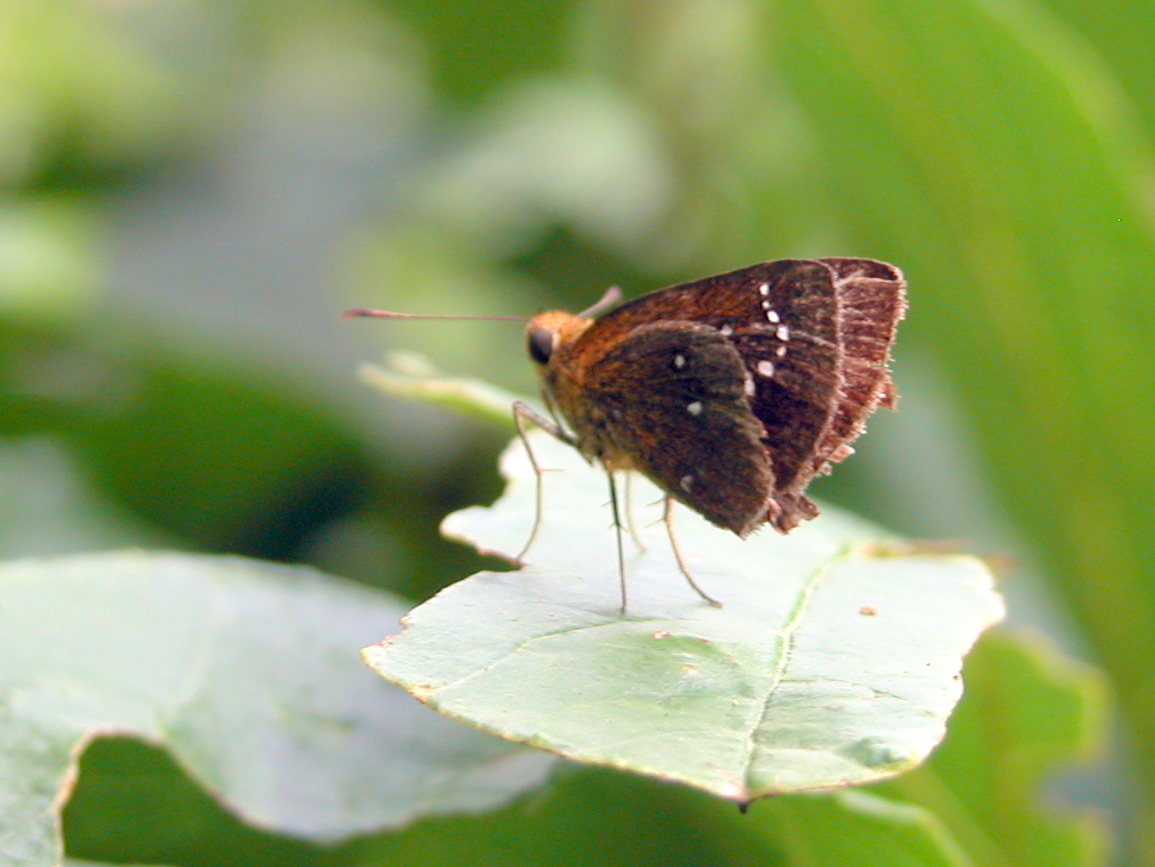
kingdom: Animalia
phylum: Arthropoda
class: Insecta
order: Lepidoptera
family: Hesperiidae
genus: Iambrix
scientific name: Iambrix salsala
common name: Chestnut bob
